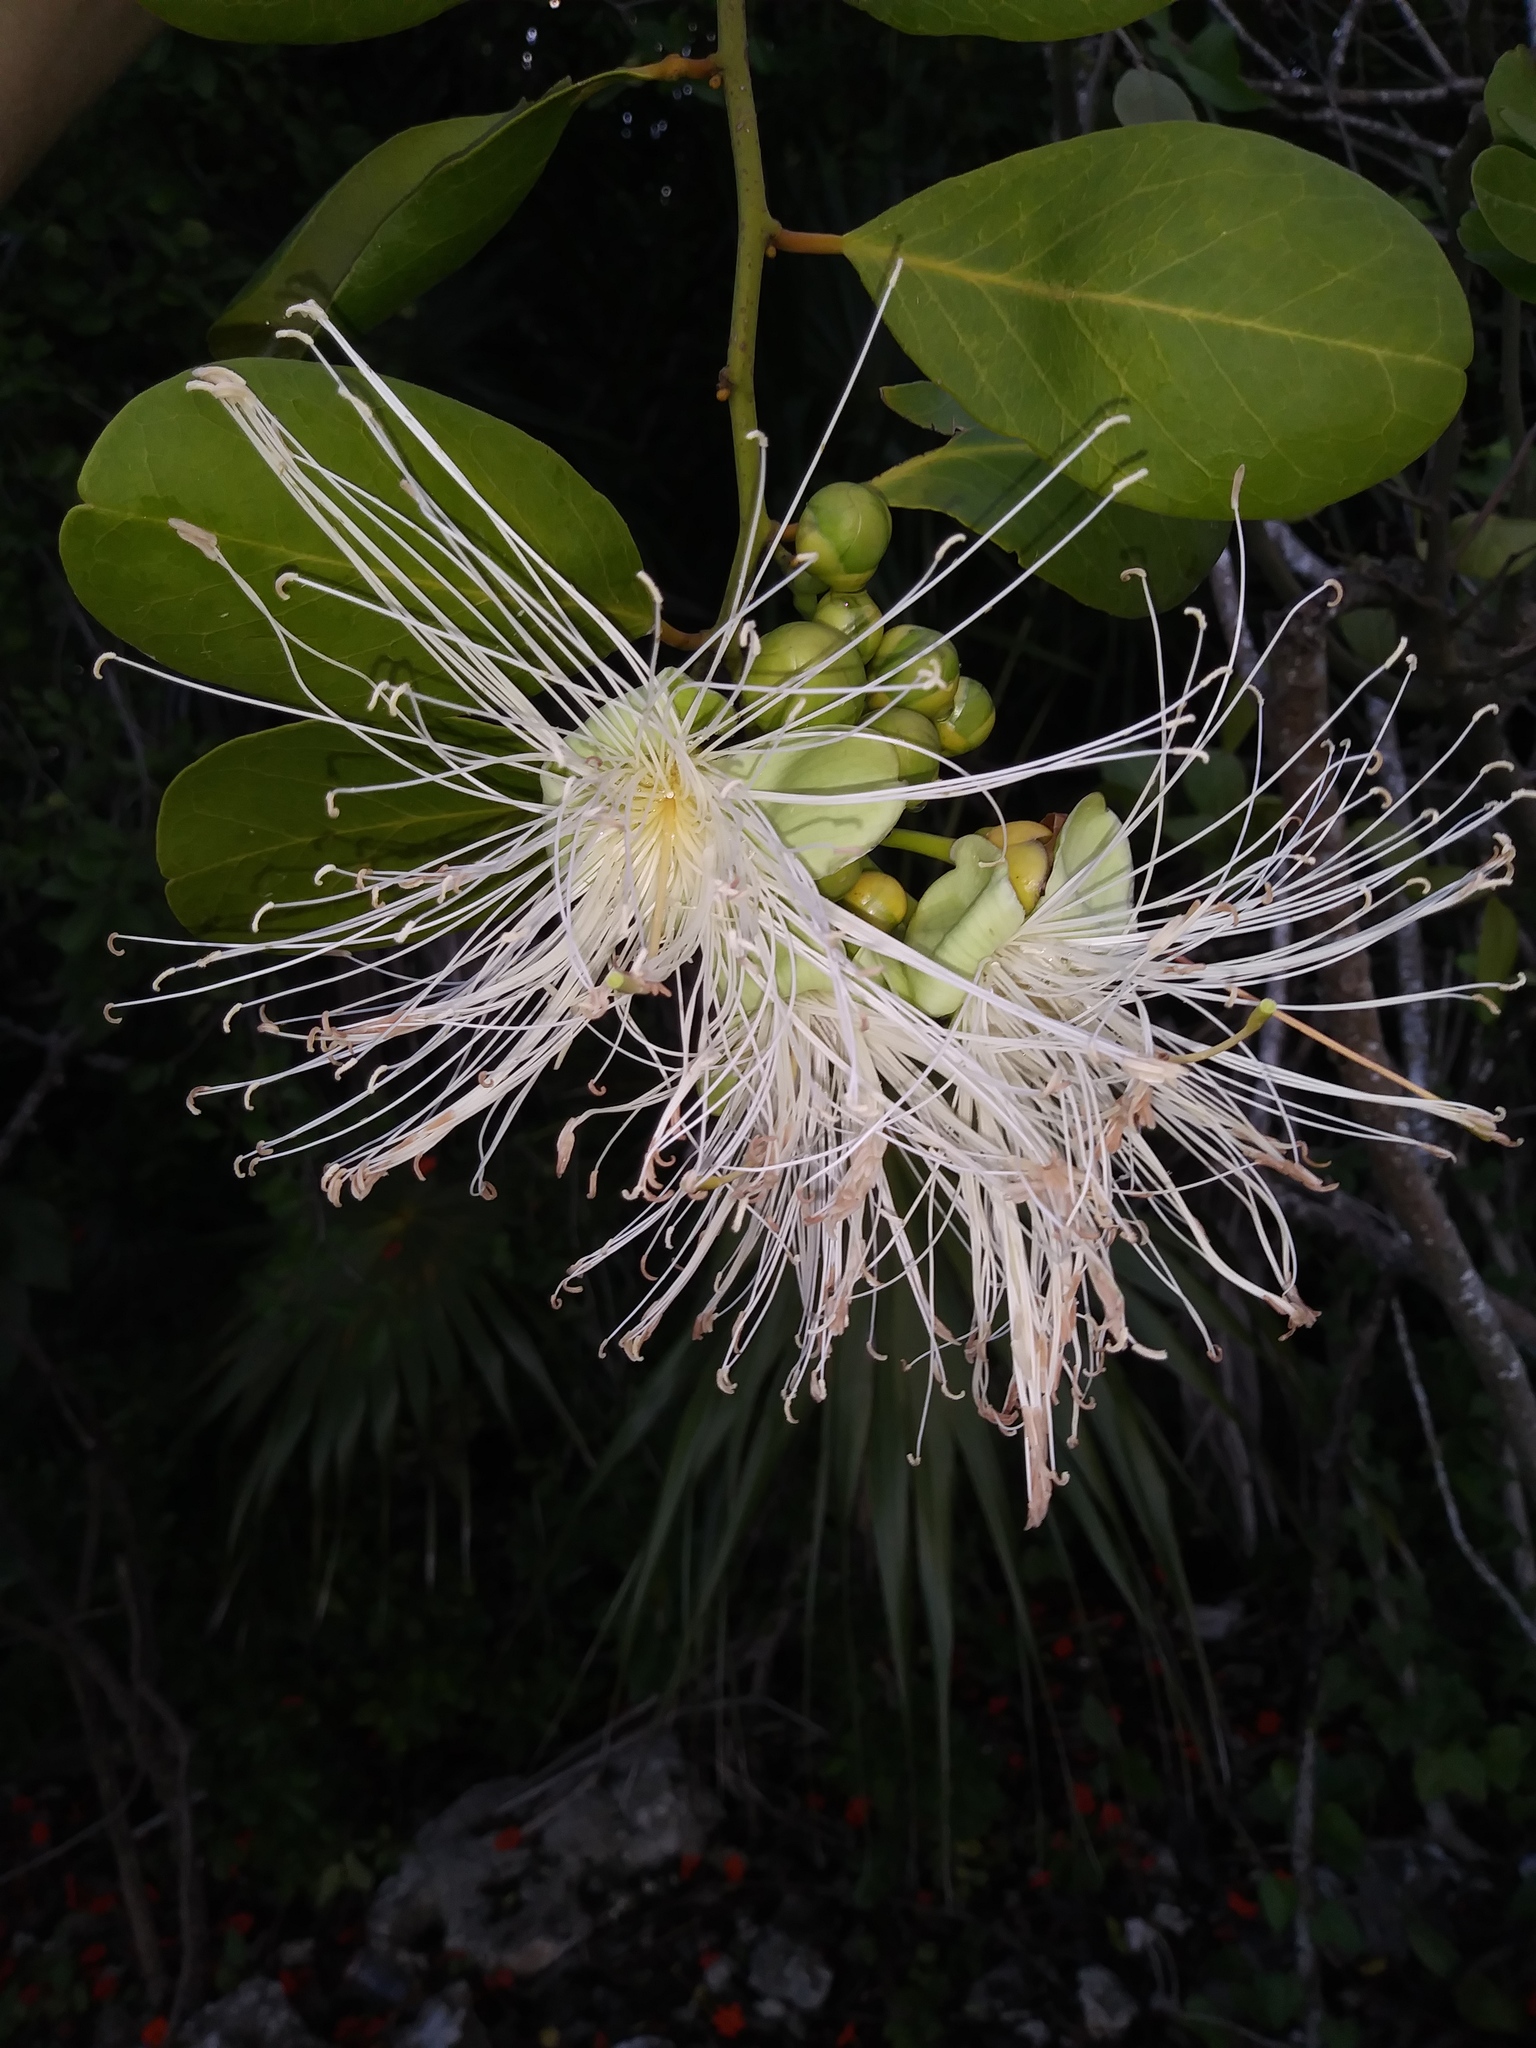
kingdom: Plantae
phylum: Tracheophyta
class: Magnoliopsida
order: Brassicales
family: Capparaceae
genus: Cynophalla
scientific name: Cynophalla flexuosa
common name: Capertree
